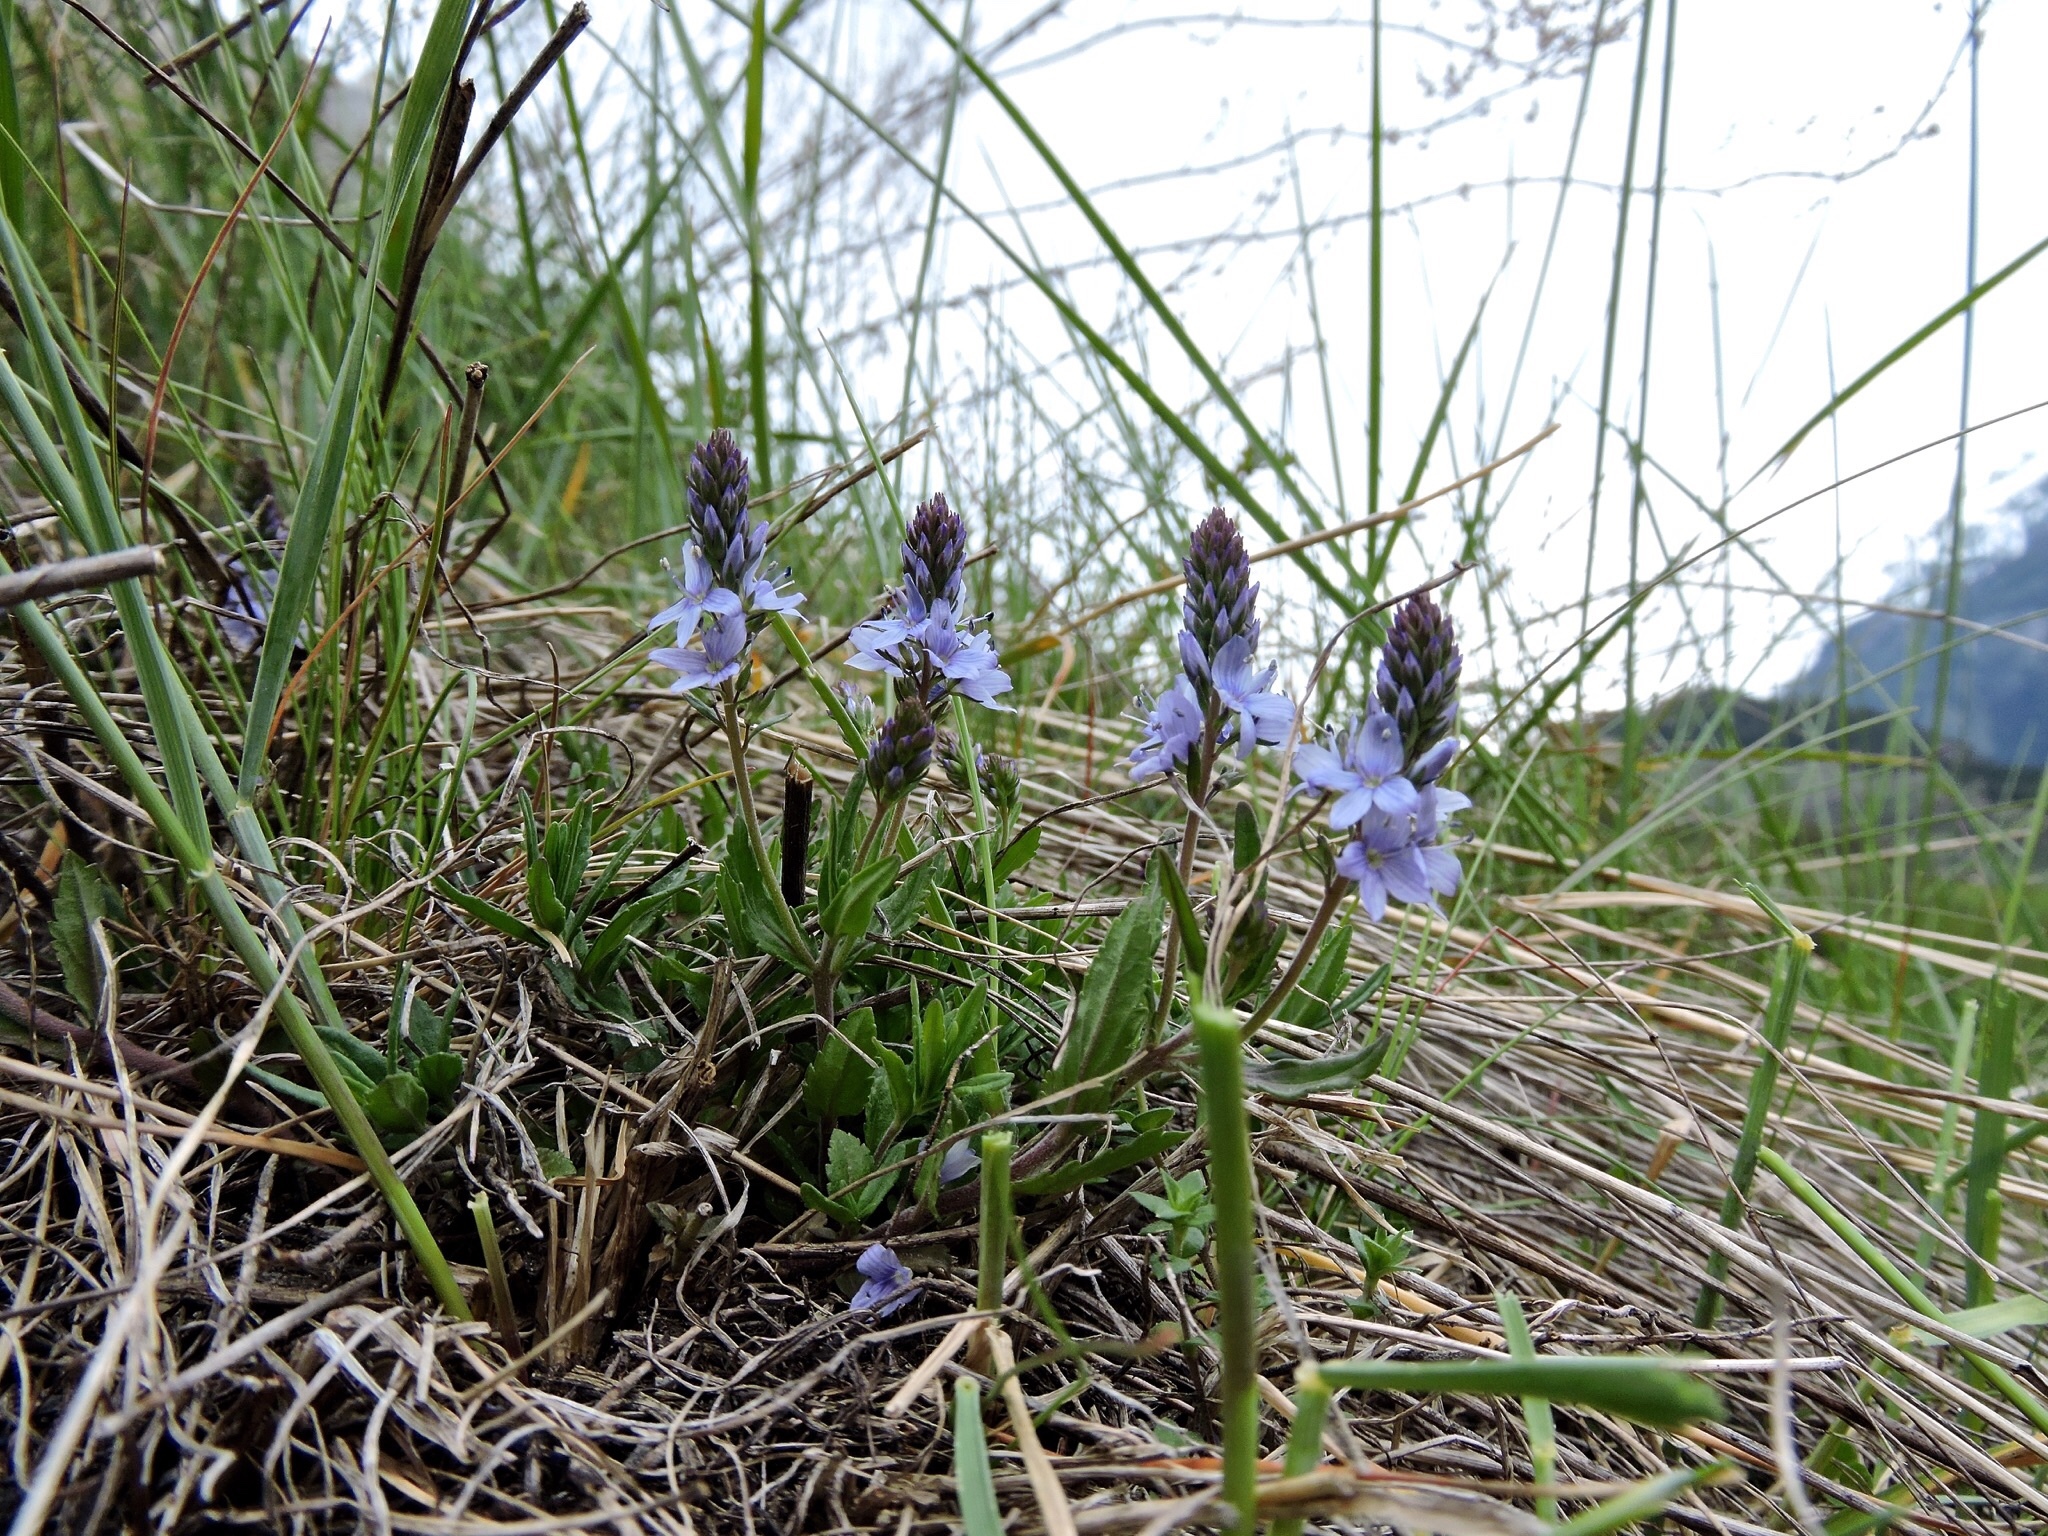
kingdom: Plantae
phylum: Tracheophyta
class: Magnoliopsida
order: Lamiales
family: Plantaginaceae
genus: Veronica
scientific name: Veronica prostrata
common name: Prostrate speedwell
